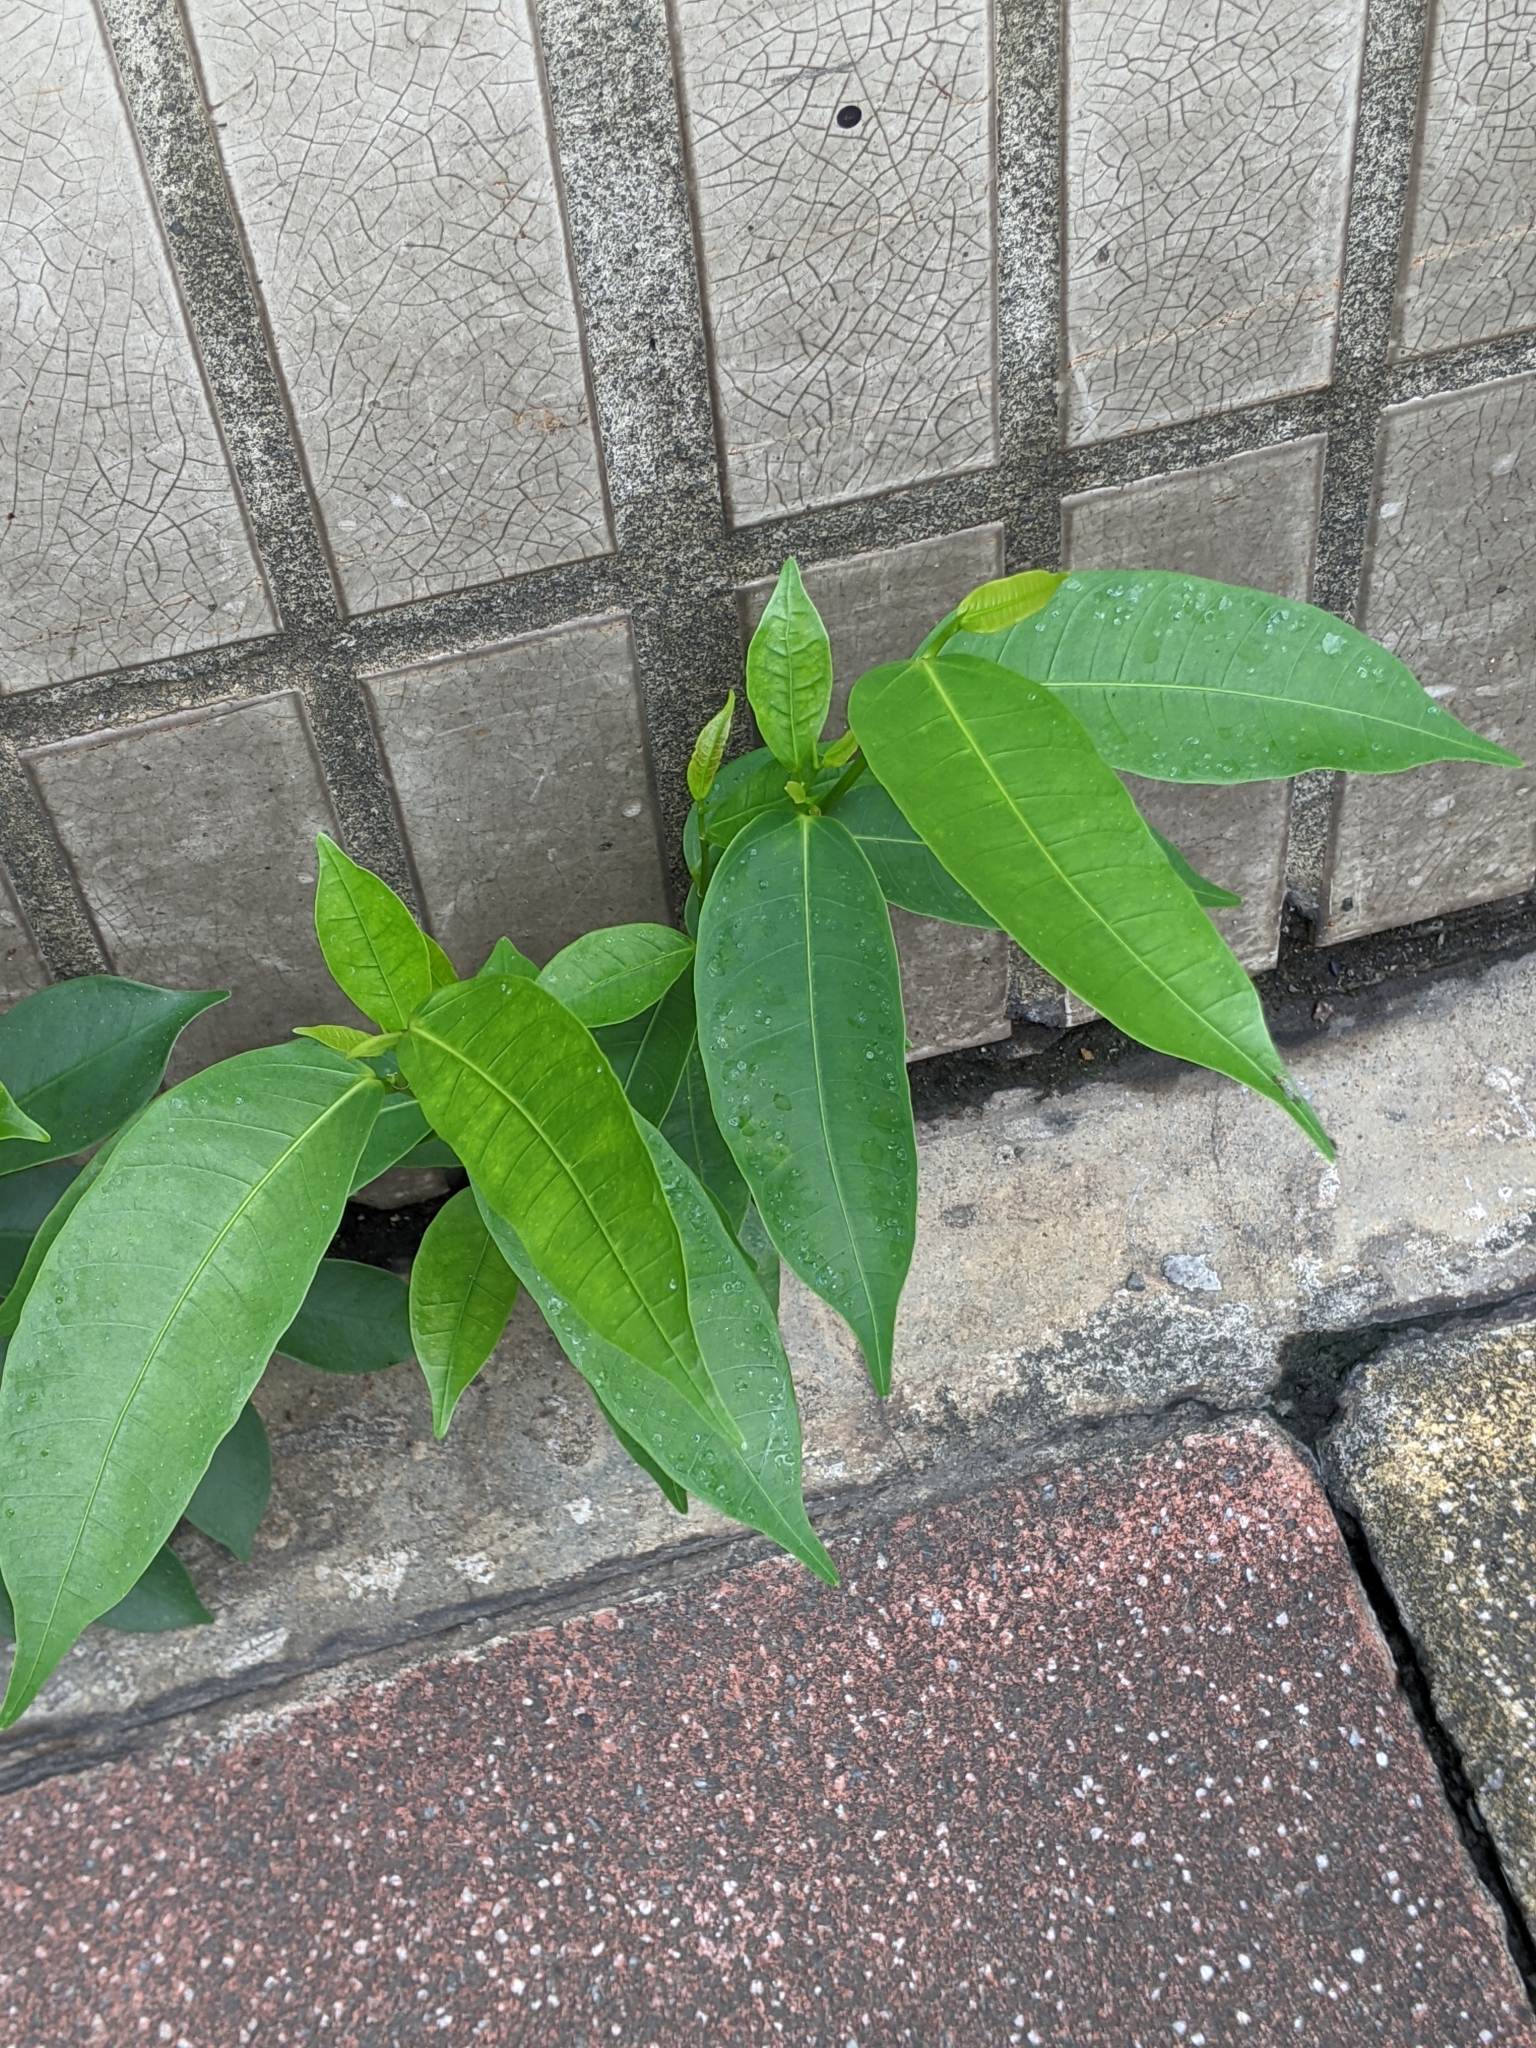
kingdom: Plantae
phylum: Tracheophyta
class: Magnoliopsida
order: Rosales
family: Moraceae
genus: Ficus
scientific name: Ficus virgata
